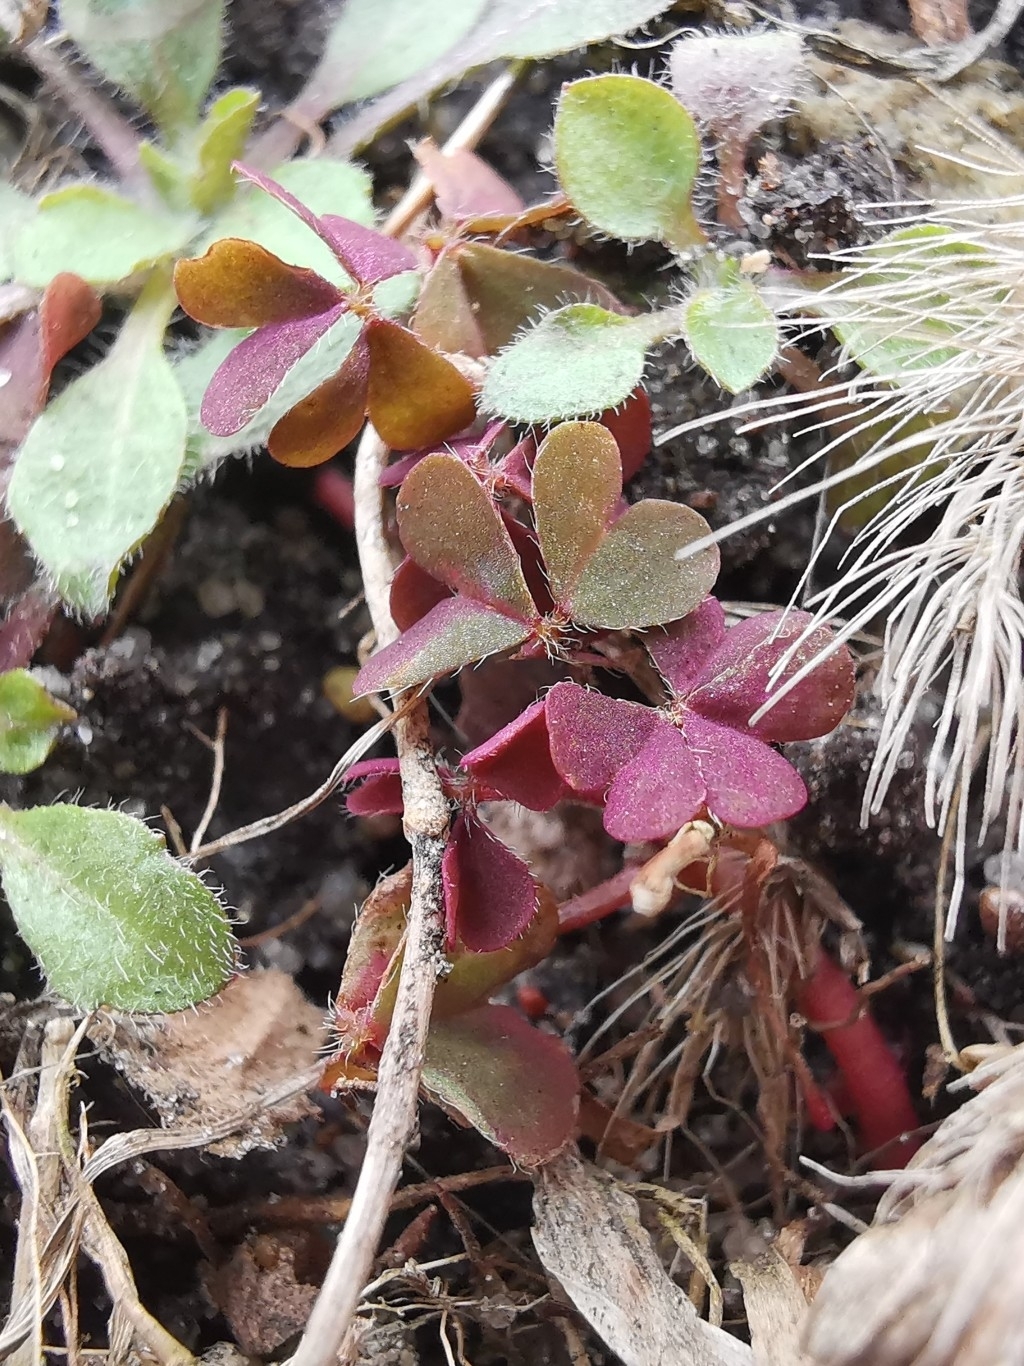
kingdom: Plantae
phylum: Tracheophyta
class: Magnoliopsida
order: Oxalidales
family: Oxalidaceae
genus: Oxalis
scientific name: Oxalis corniculata
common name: Procumbent yellow-sorrel
